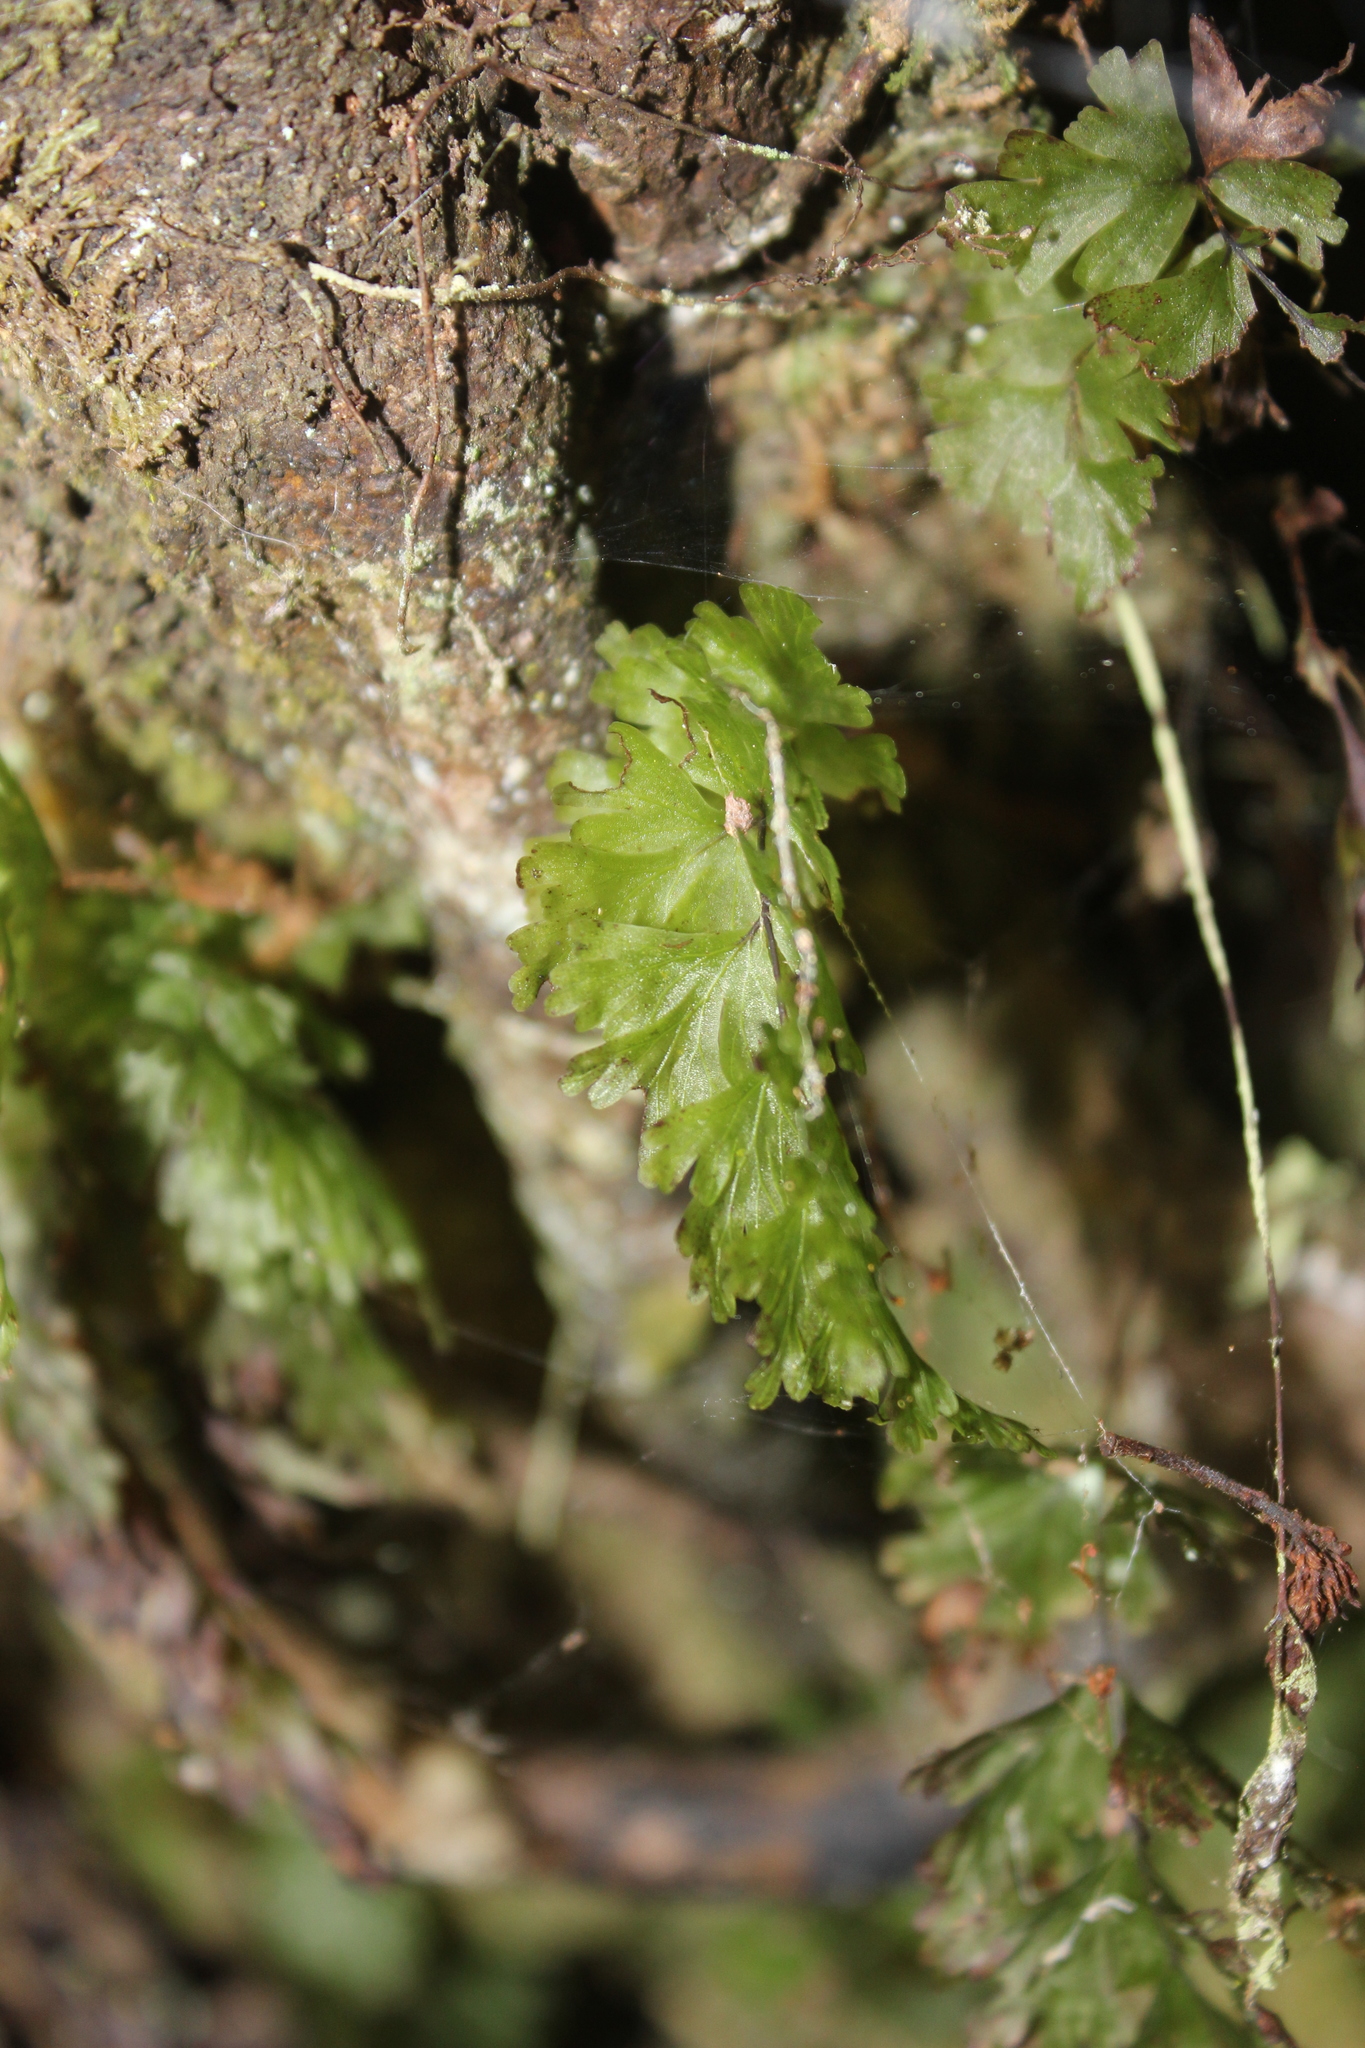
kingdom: Plantae
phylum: Tracheophyta
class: Polypodiopsida
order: Hymenophyllales
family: Hymenophyllaceae
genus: Hymenophyllum
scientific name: Hymenophyllum flabellatum
